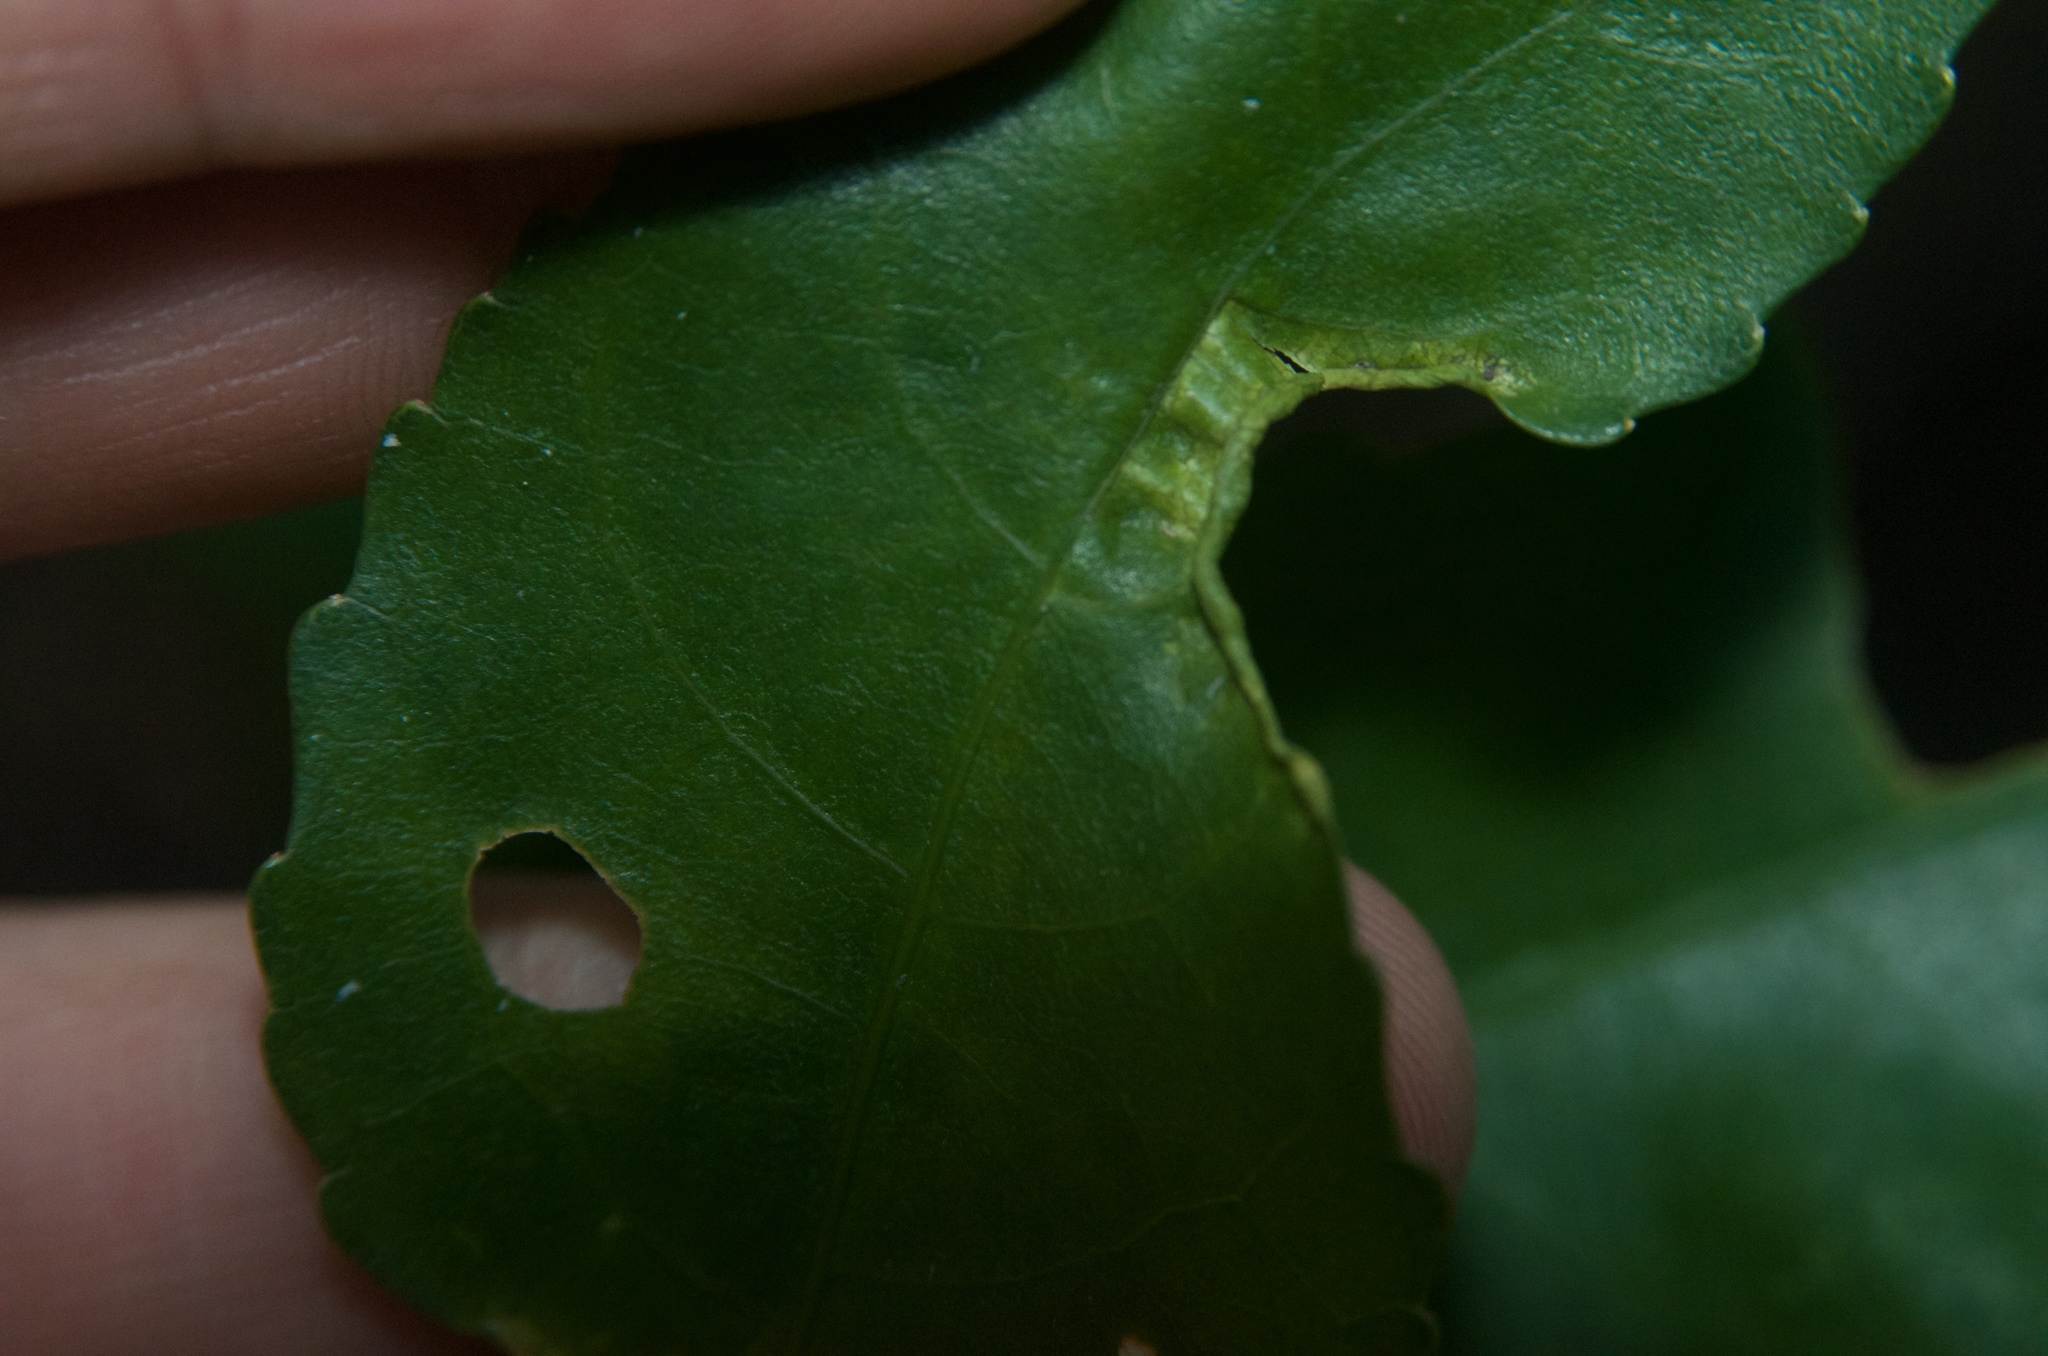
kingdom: Animalia
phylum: Arthropoda
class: Arachnida
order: Trombidiformes
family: Eriophyidae
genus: Aceria
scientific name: Aceria
